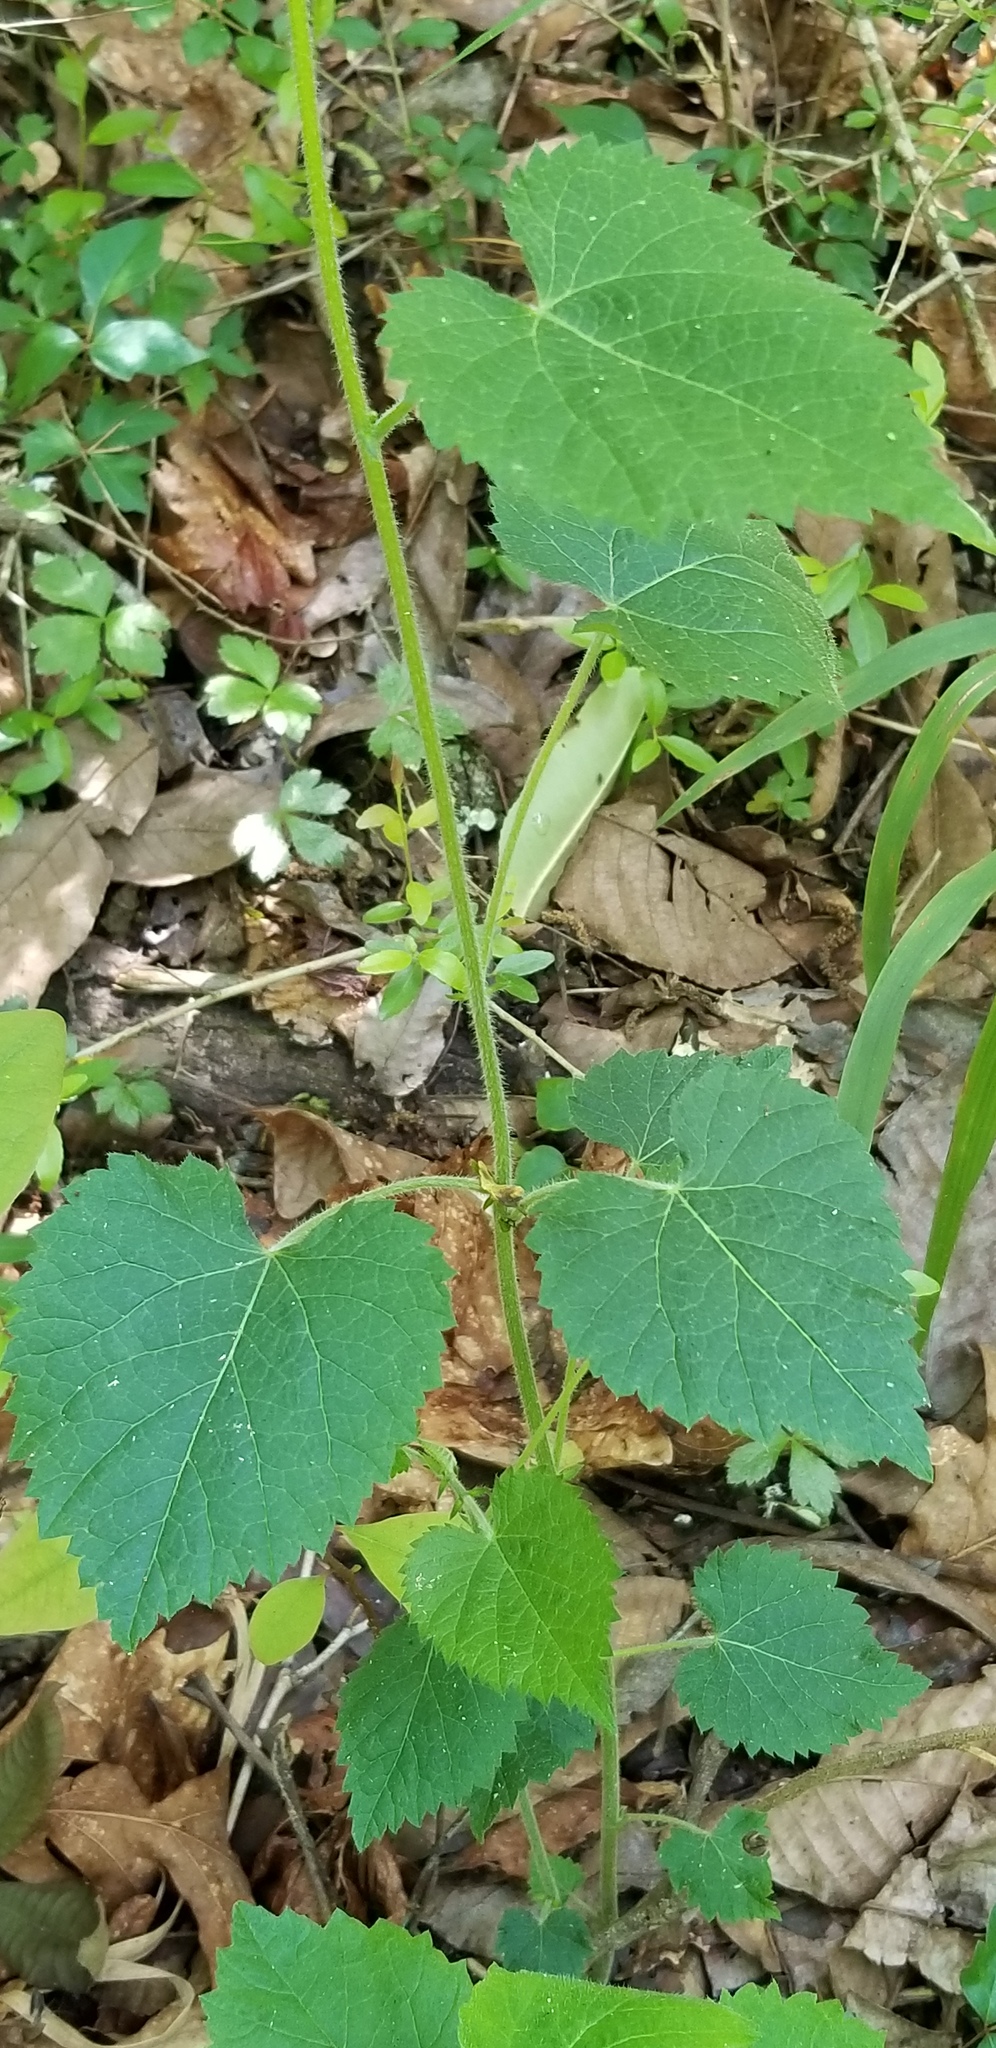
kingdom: Plantae
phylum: Tracheophyta
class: Magnoliopsida
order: Malpighiales
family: Euphorbiaceae
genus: Tragia
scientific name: Tragia cordata
